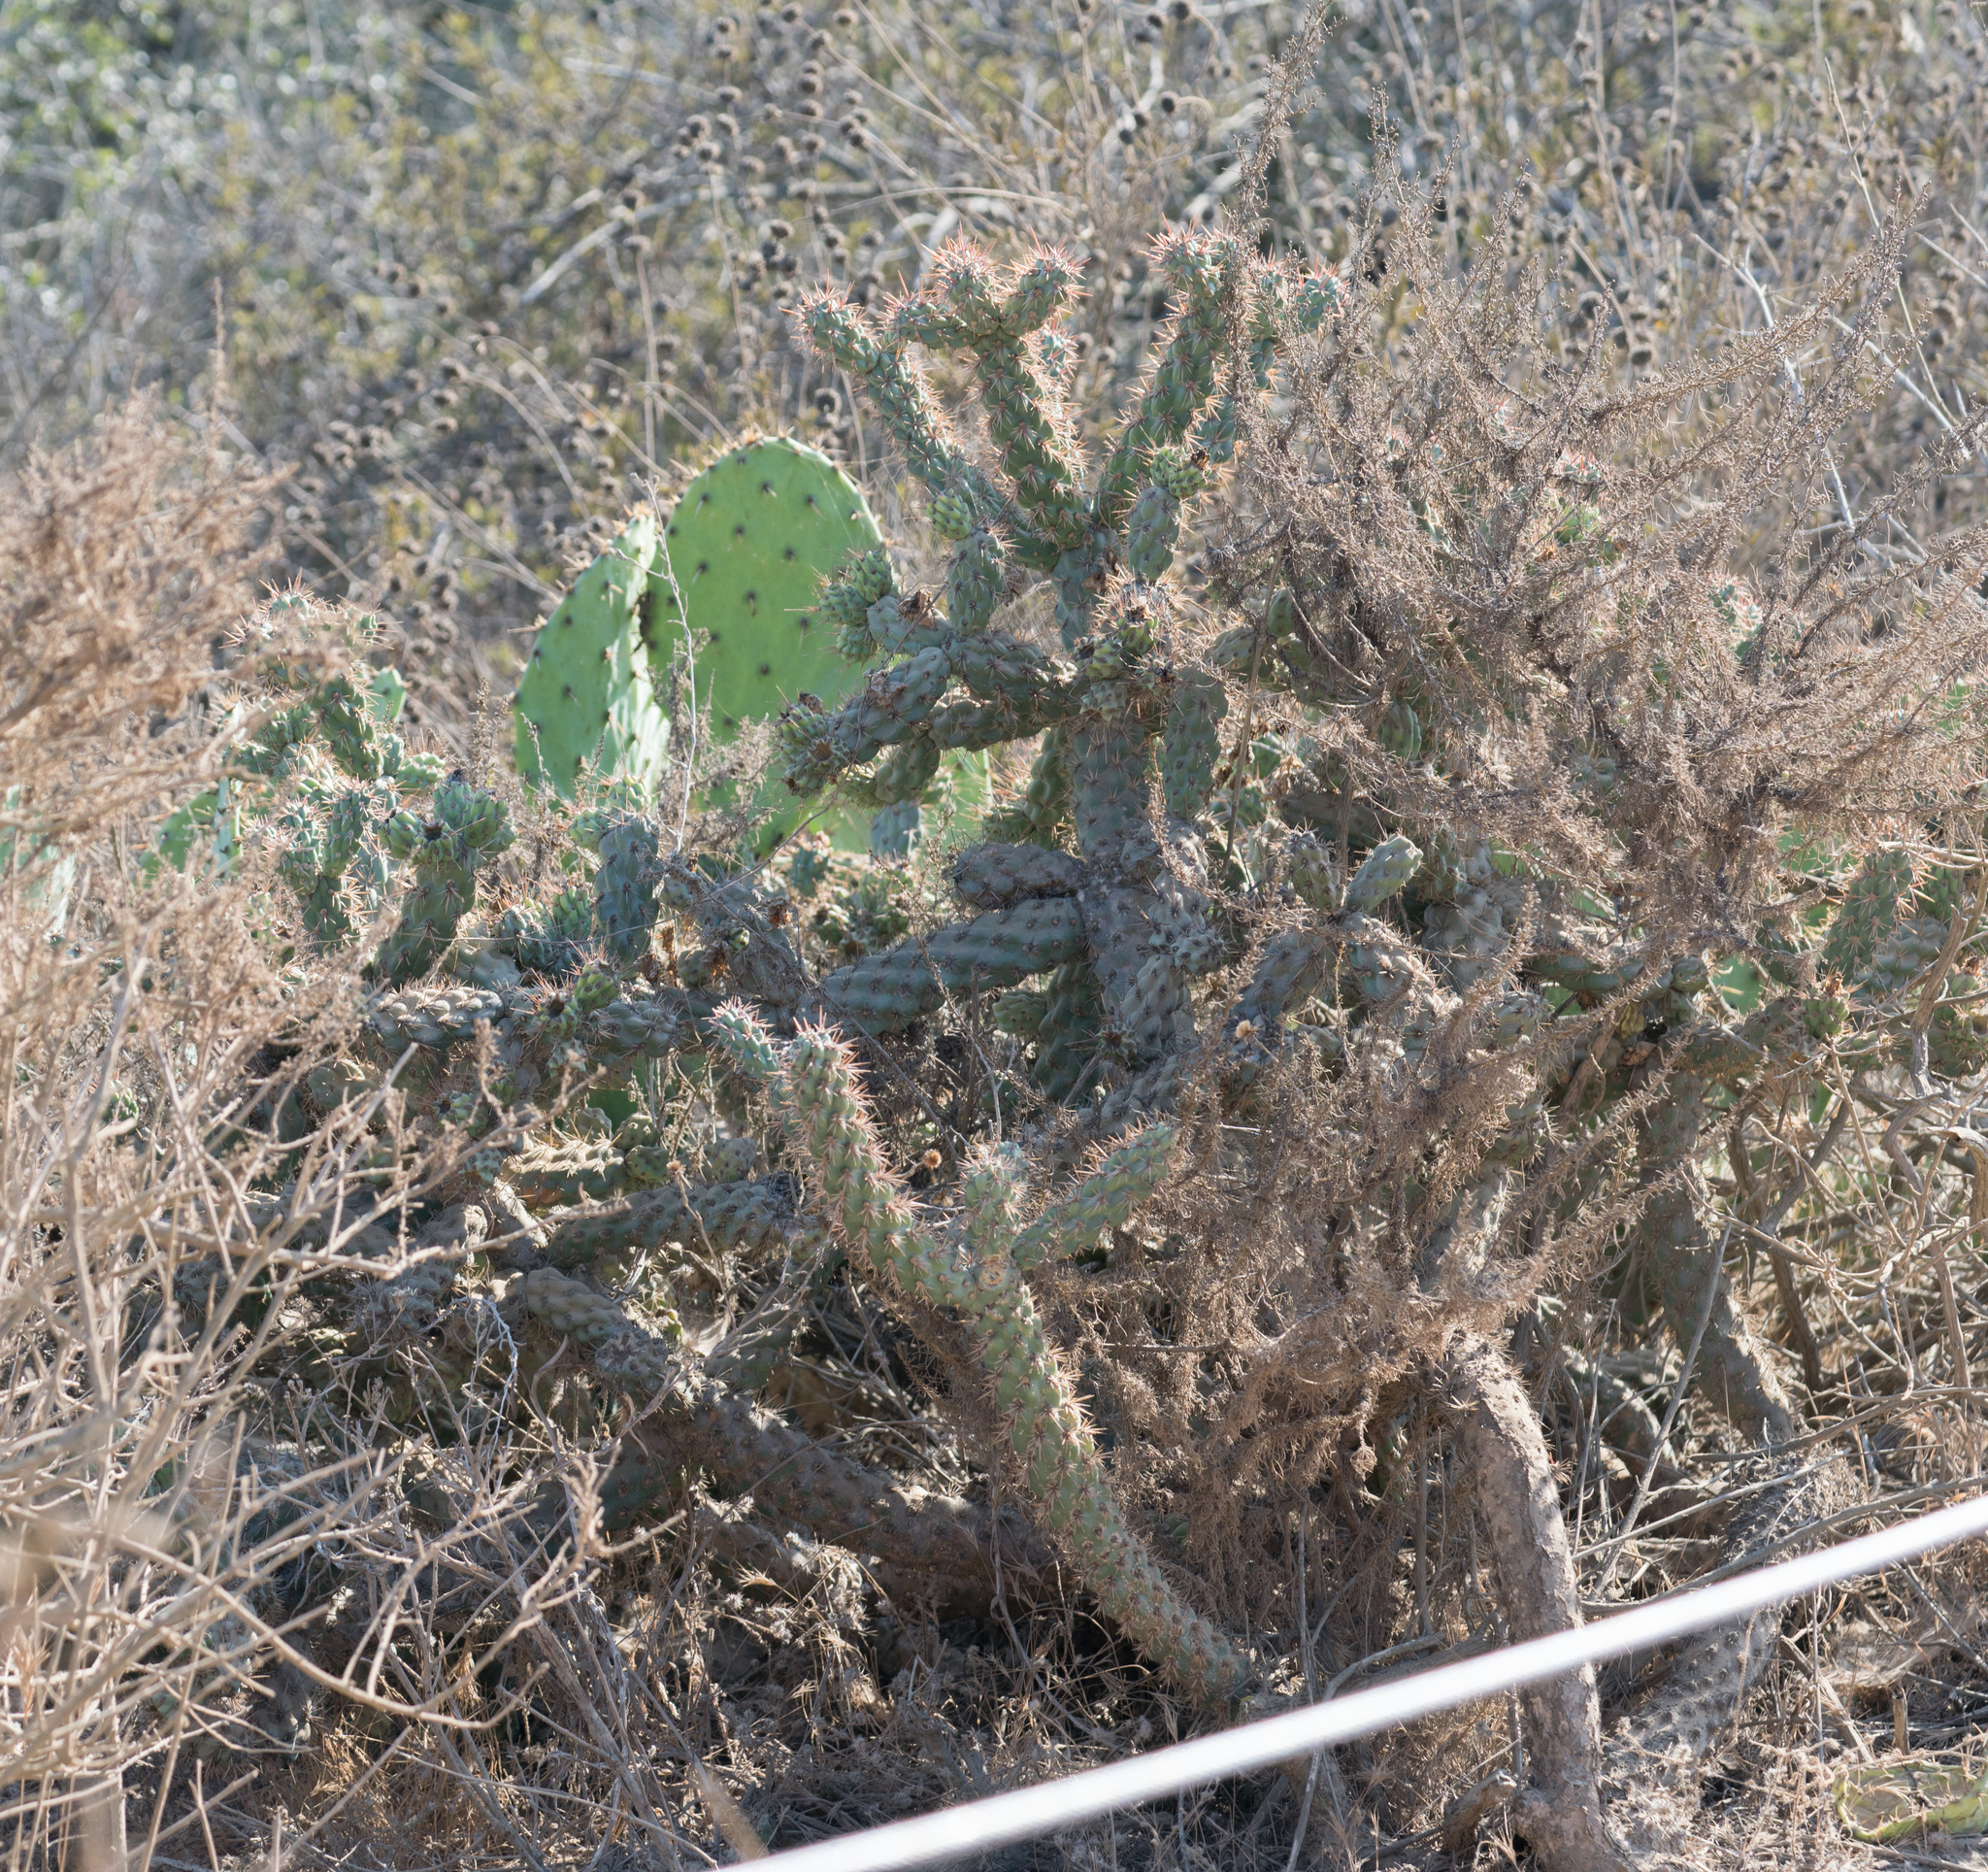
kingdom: Plantae
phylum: Tracheophyta
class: Magnoliopsida
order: Caryophyllales
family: Cactaceae
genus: Cylindropuntia
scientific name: Cylindropuntia prolifera
